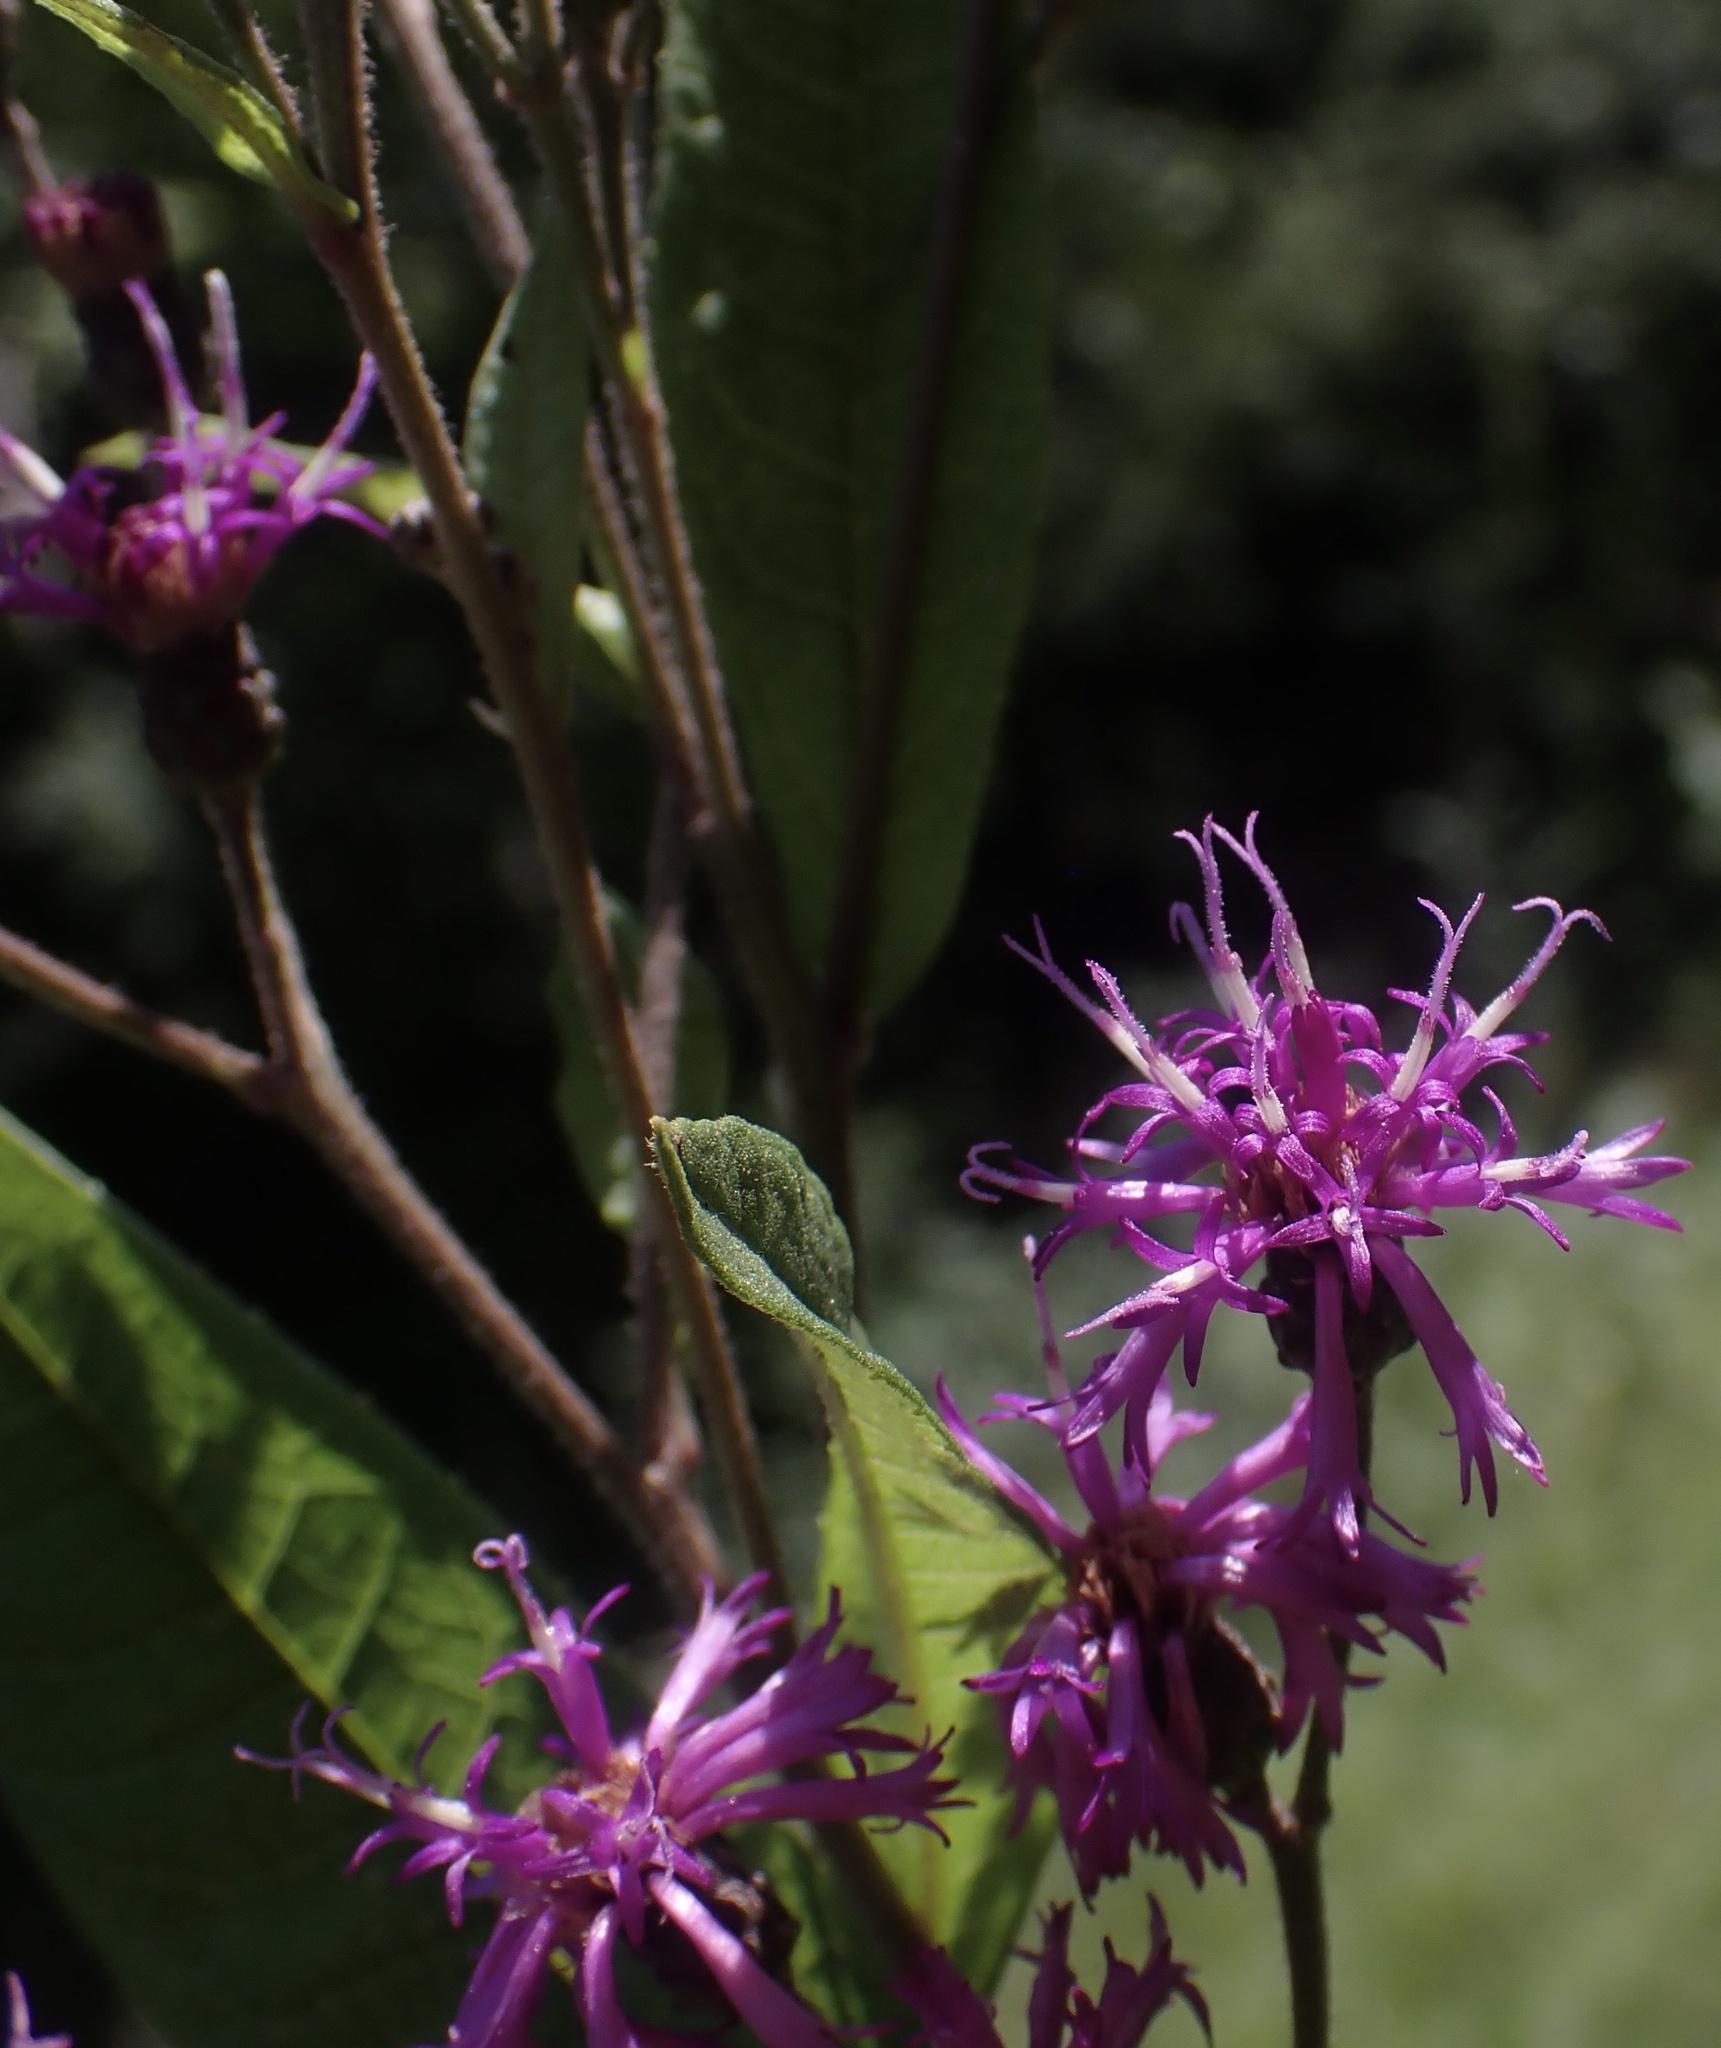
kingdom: Plantae
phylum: Tracheophyta
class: Magnoliopsida
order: Asterales
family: Asteraceae
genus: Vernonia
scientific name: Vernonia gigantea
